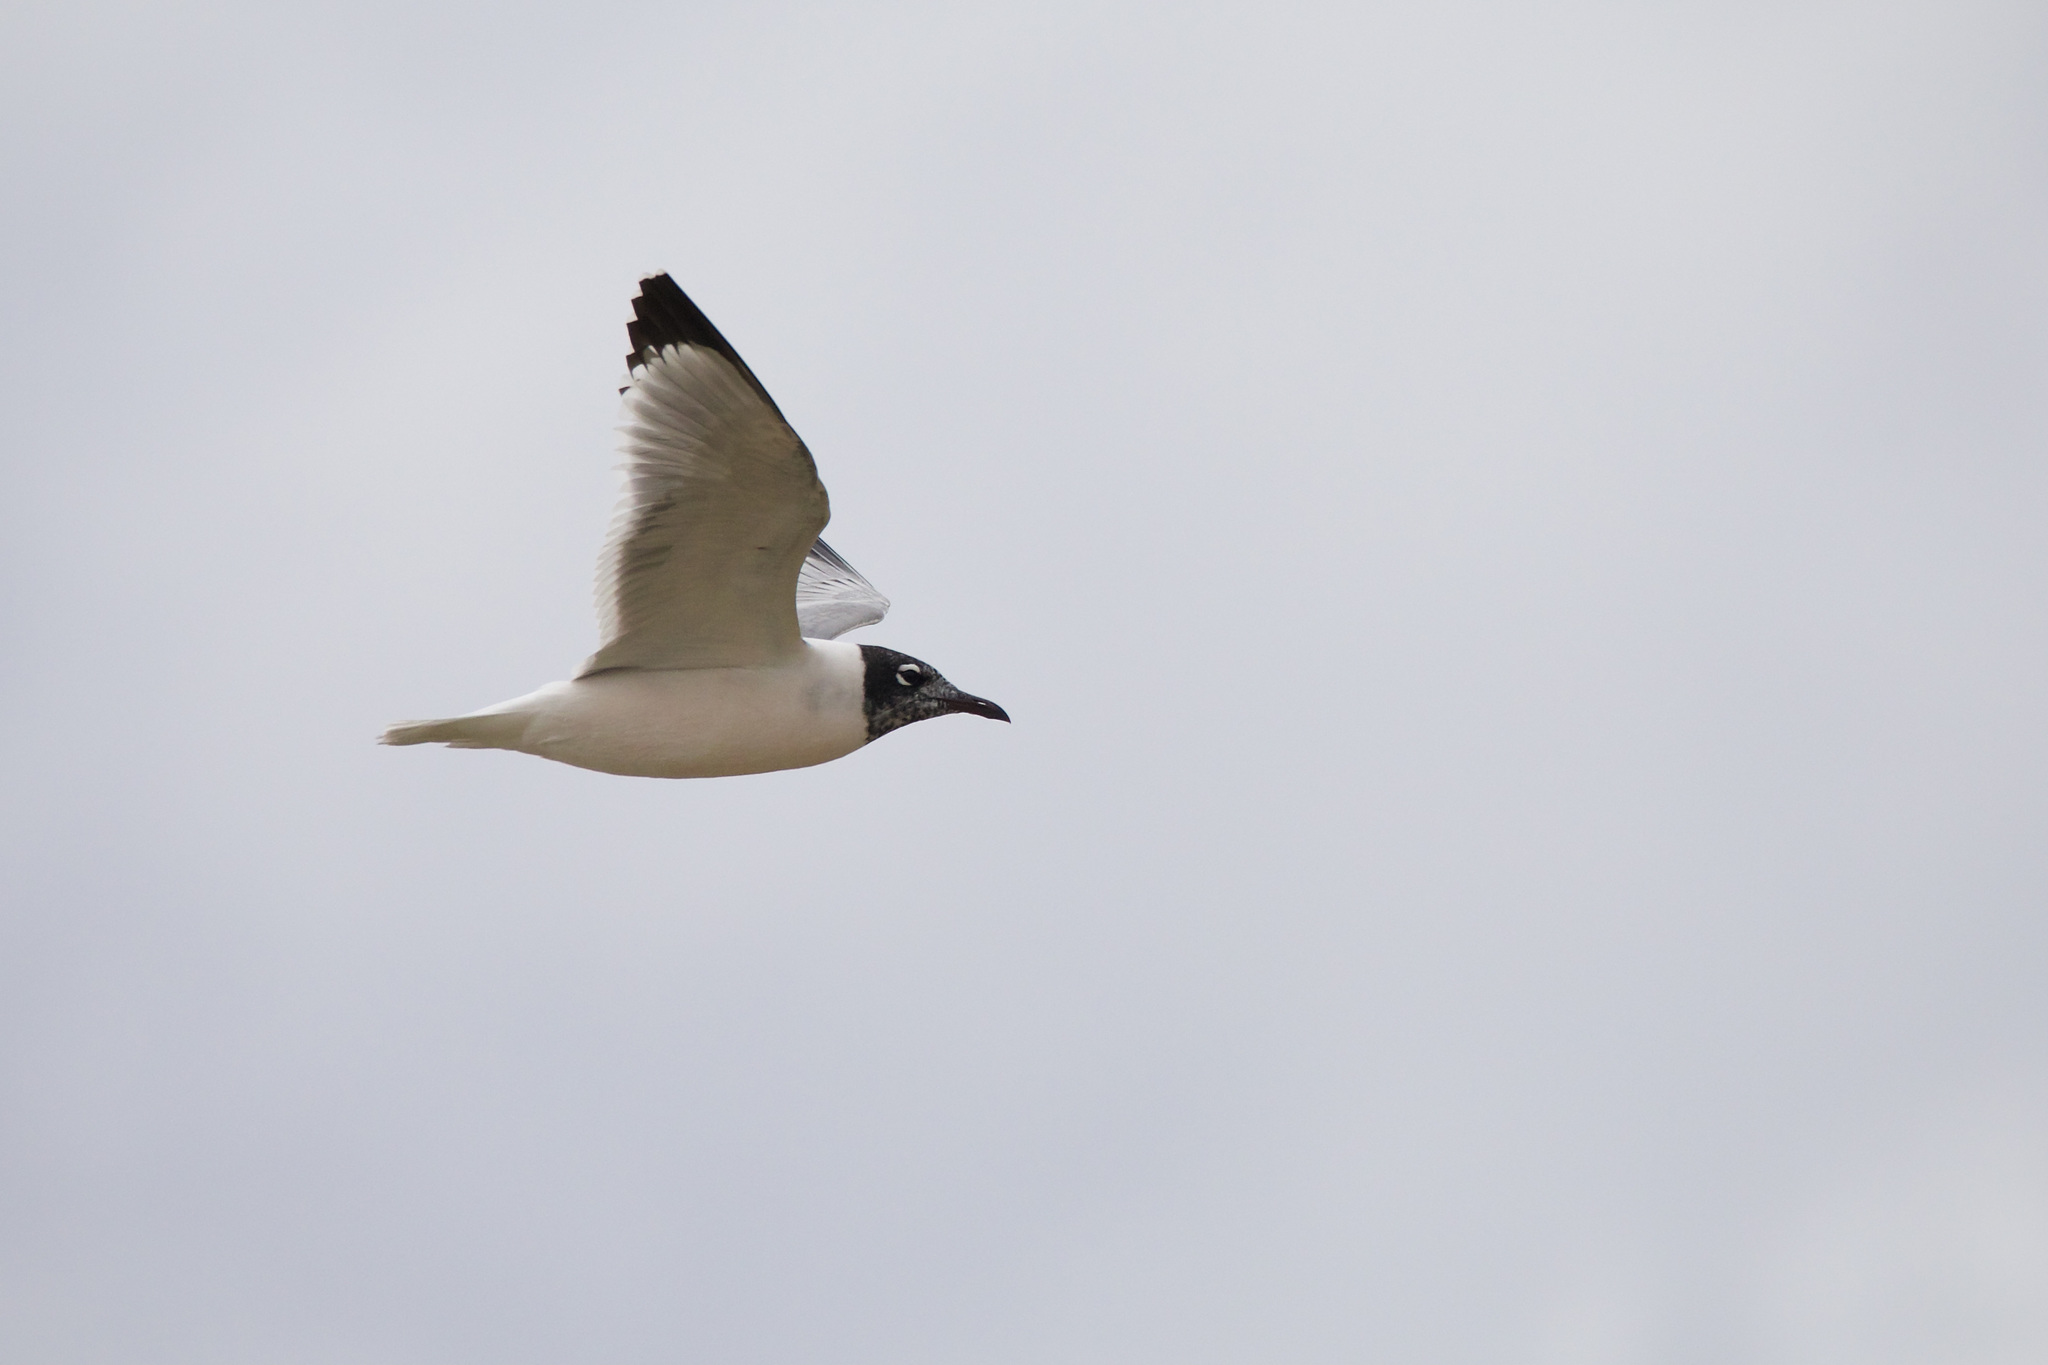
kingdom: Animalia
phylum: Chordata
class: Aves
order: Charadriiformes
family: Laridae
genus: Leucophaeus
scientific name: Leucophaeus pipixcan
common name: Franklin's gull
